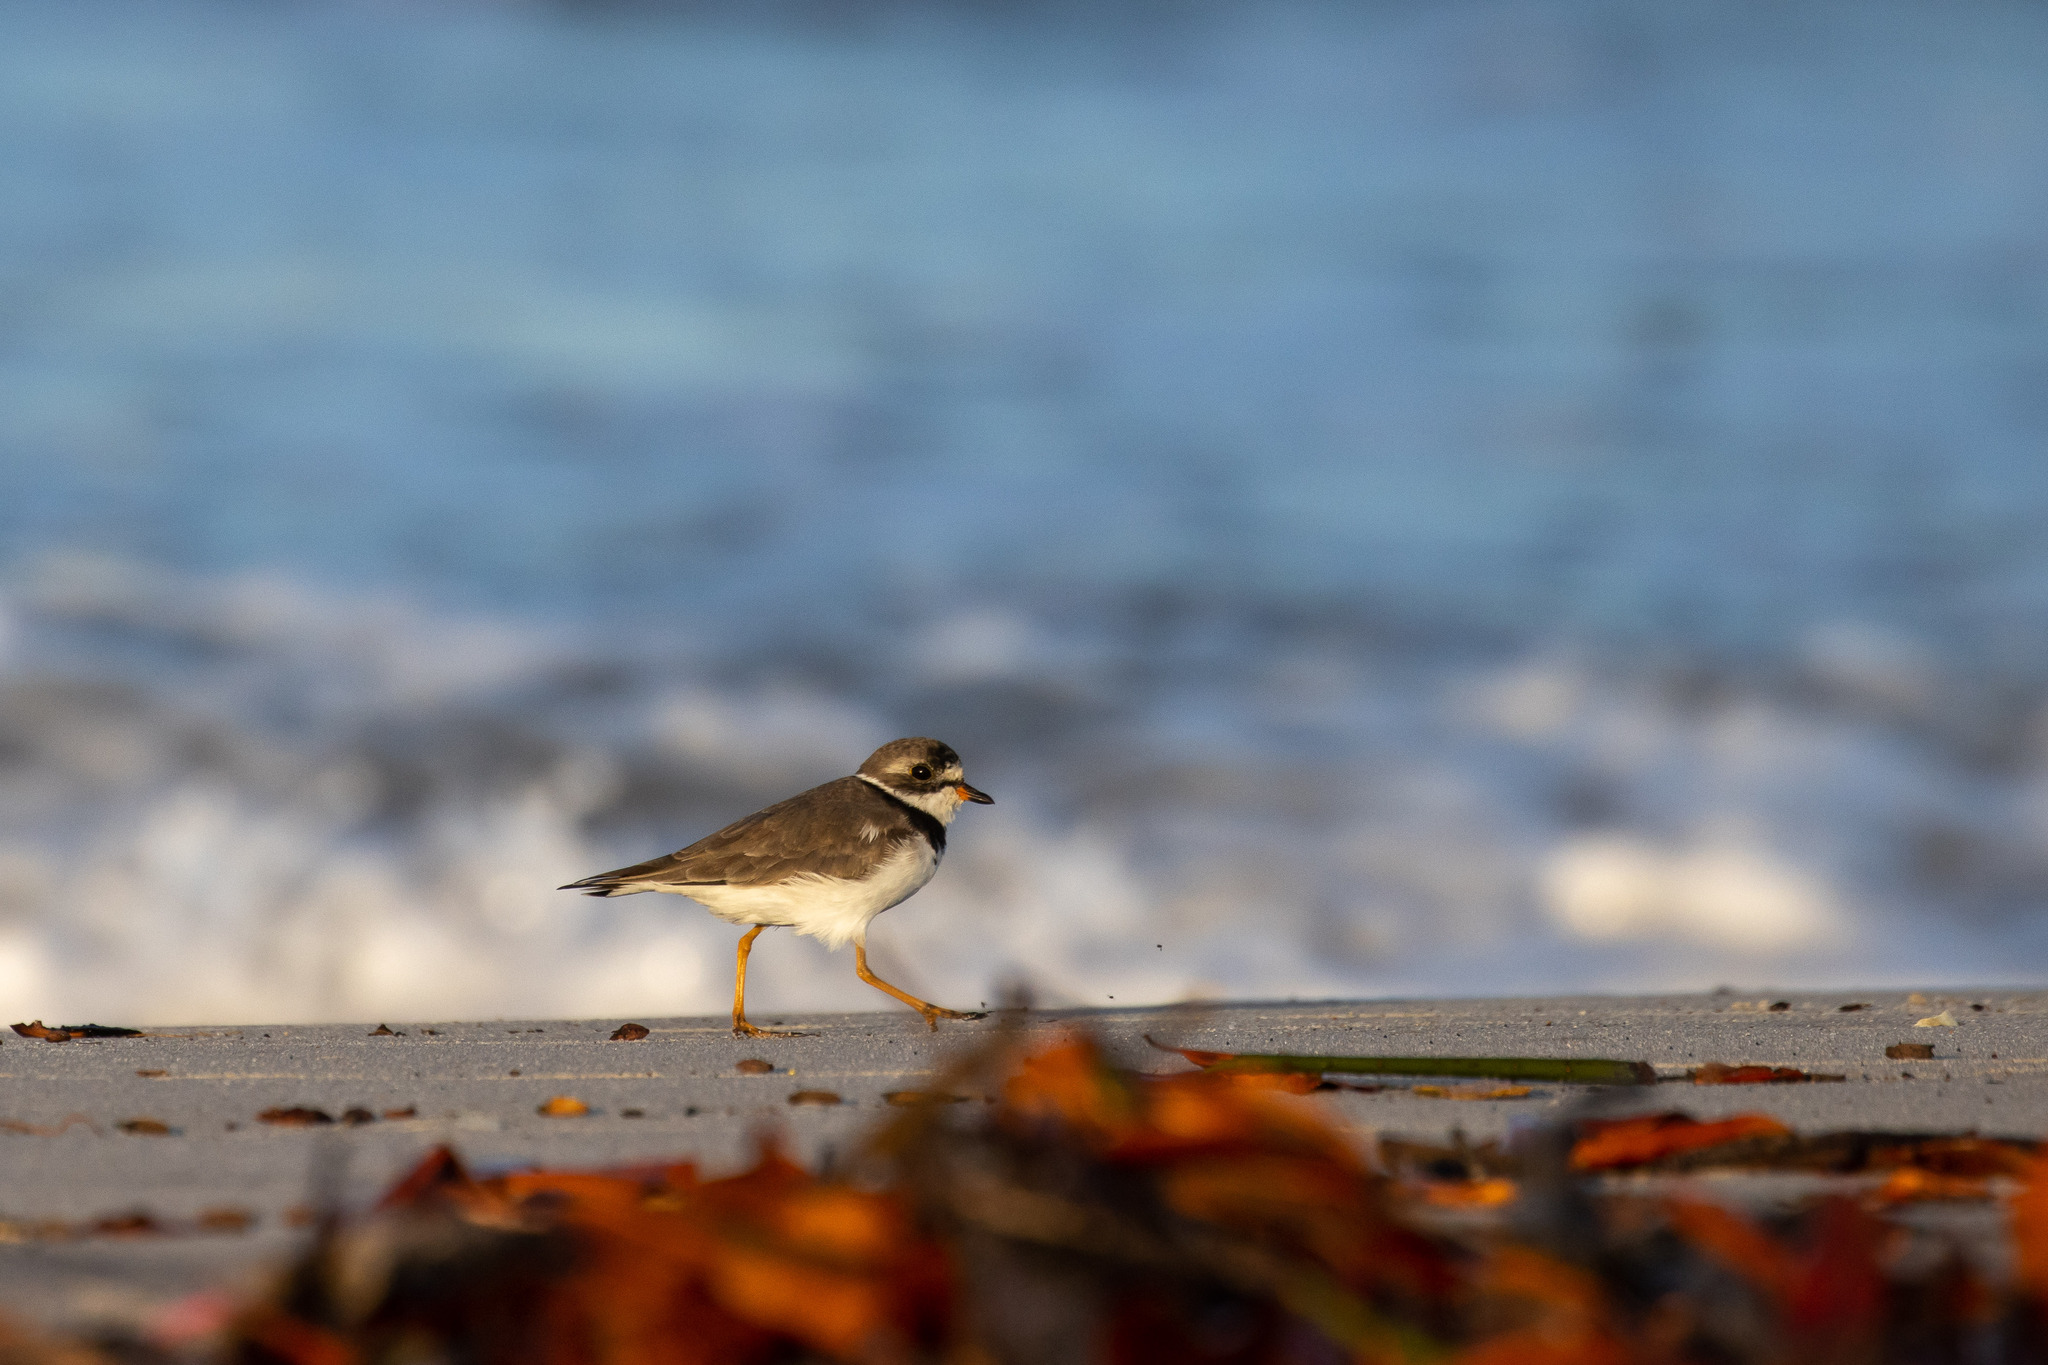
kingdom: Animalia
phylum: Chordata
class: Aves
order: Charadriiformes
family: Charadriidae
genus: Charadrius
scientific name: Charadrius semipalmatus
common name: Semipalmated plover
